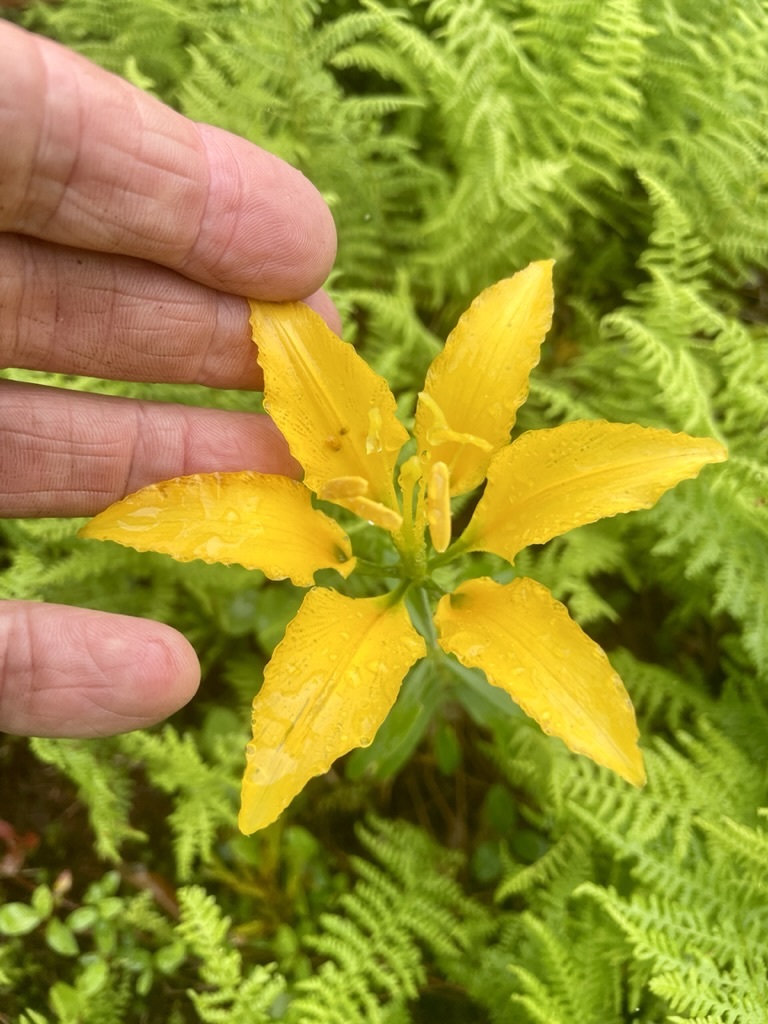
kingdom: Plantae
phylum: Tracheophyta
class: Liliopsida
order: Liliales
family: Liliaceae
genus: Lilium
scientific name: Lilium philadelphicum
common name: Red lily
